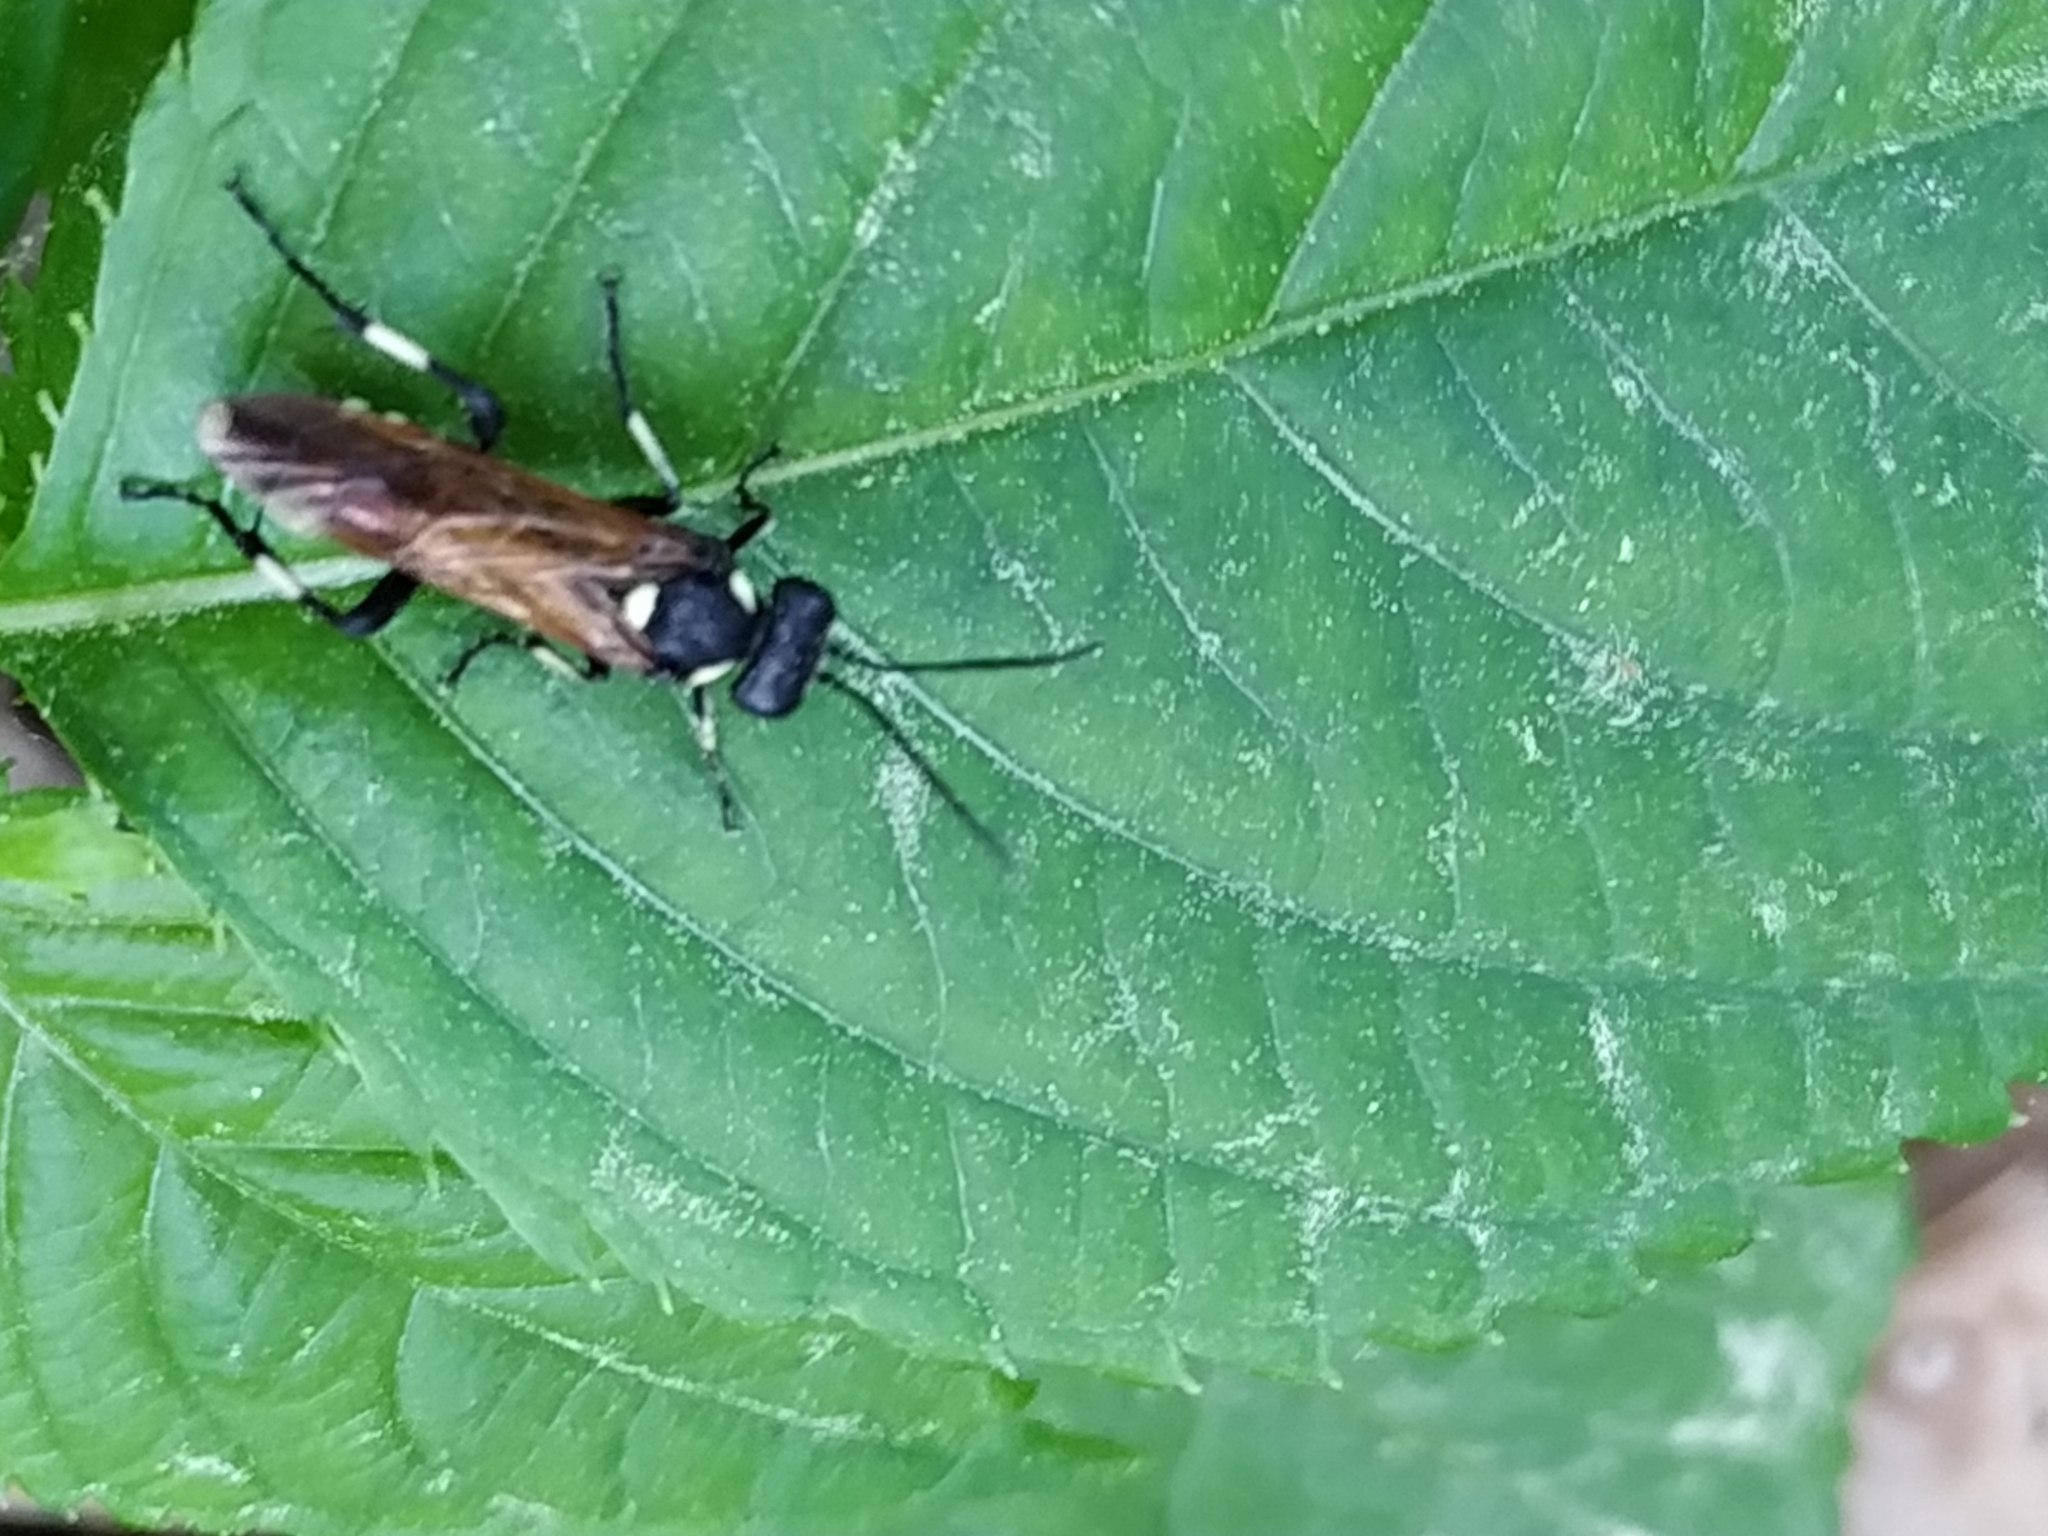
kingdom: Animalia
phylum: Arthropoda
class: Insecta
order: Hymenoptera
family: Tenthredinidae
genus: Macrophya
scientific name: Macrophya duodecimpunctata
